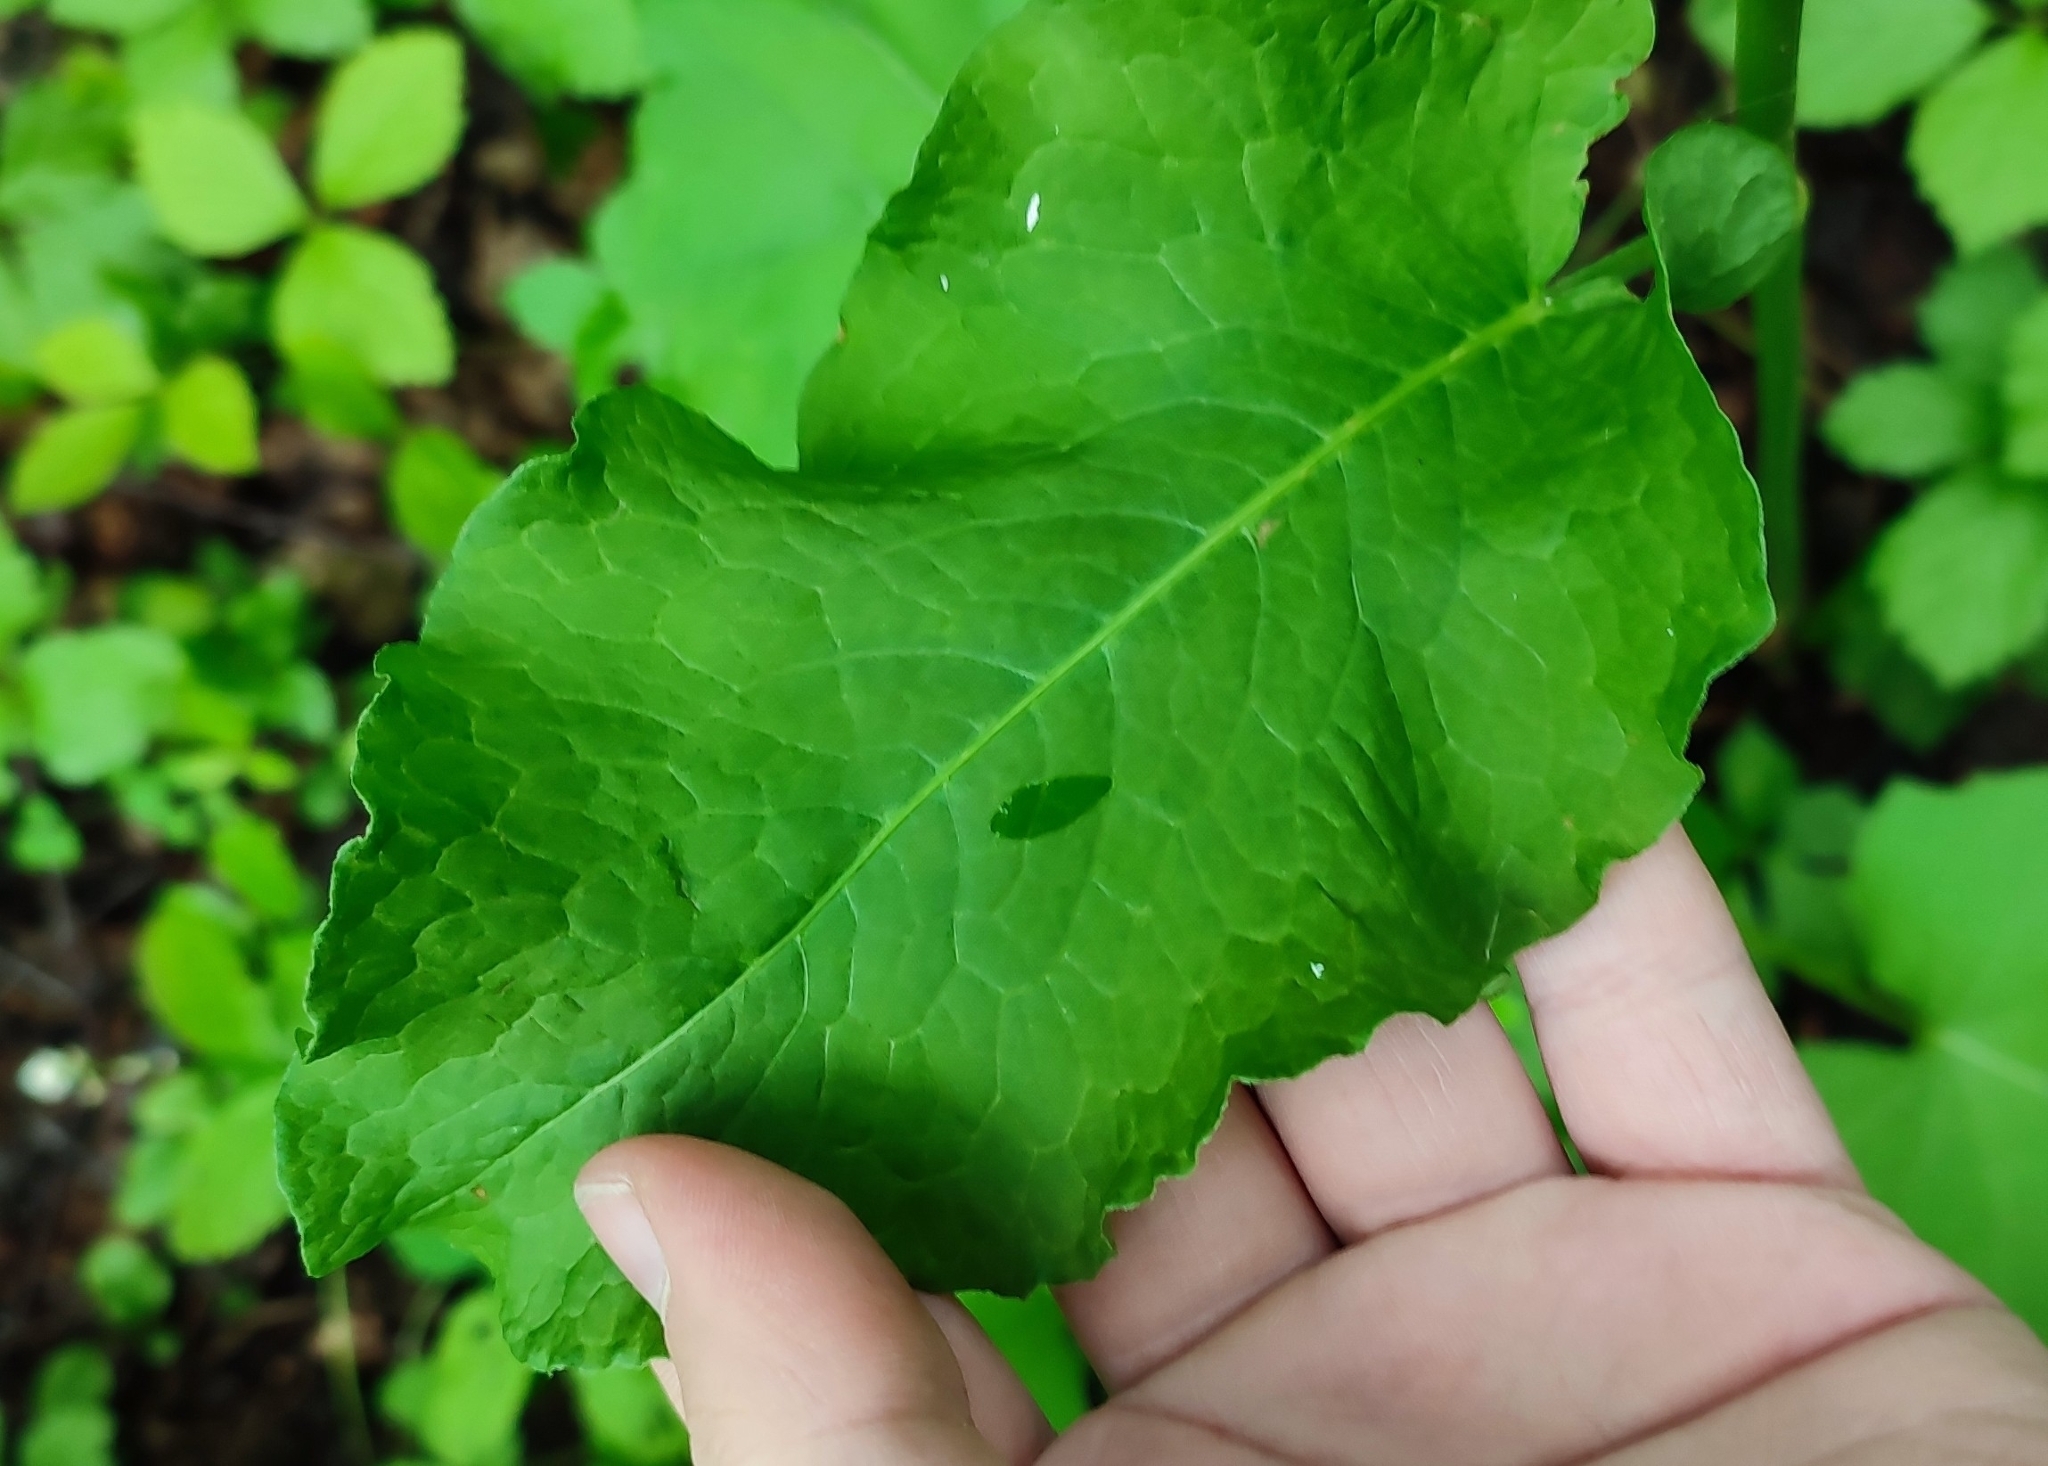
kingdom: Plantae
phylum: Tracheophyta
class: Magnoliopsida
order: Caryophyllales
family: Polygonaceae
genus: Rumex
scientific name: Rumex confertus
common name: Russian dock
